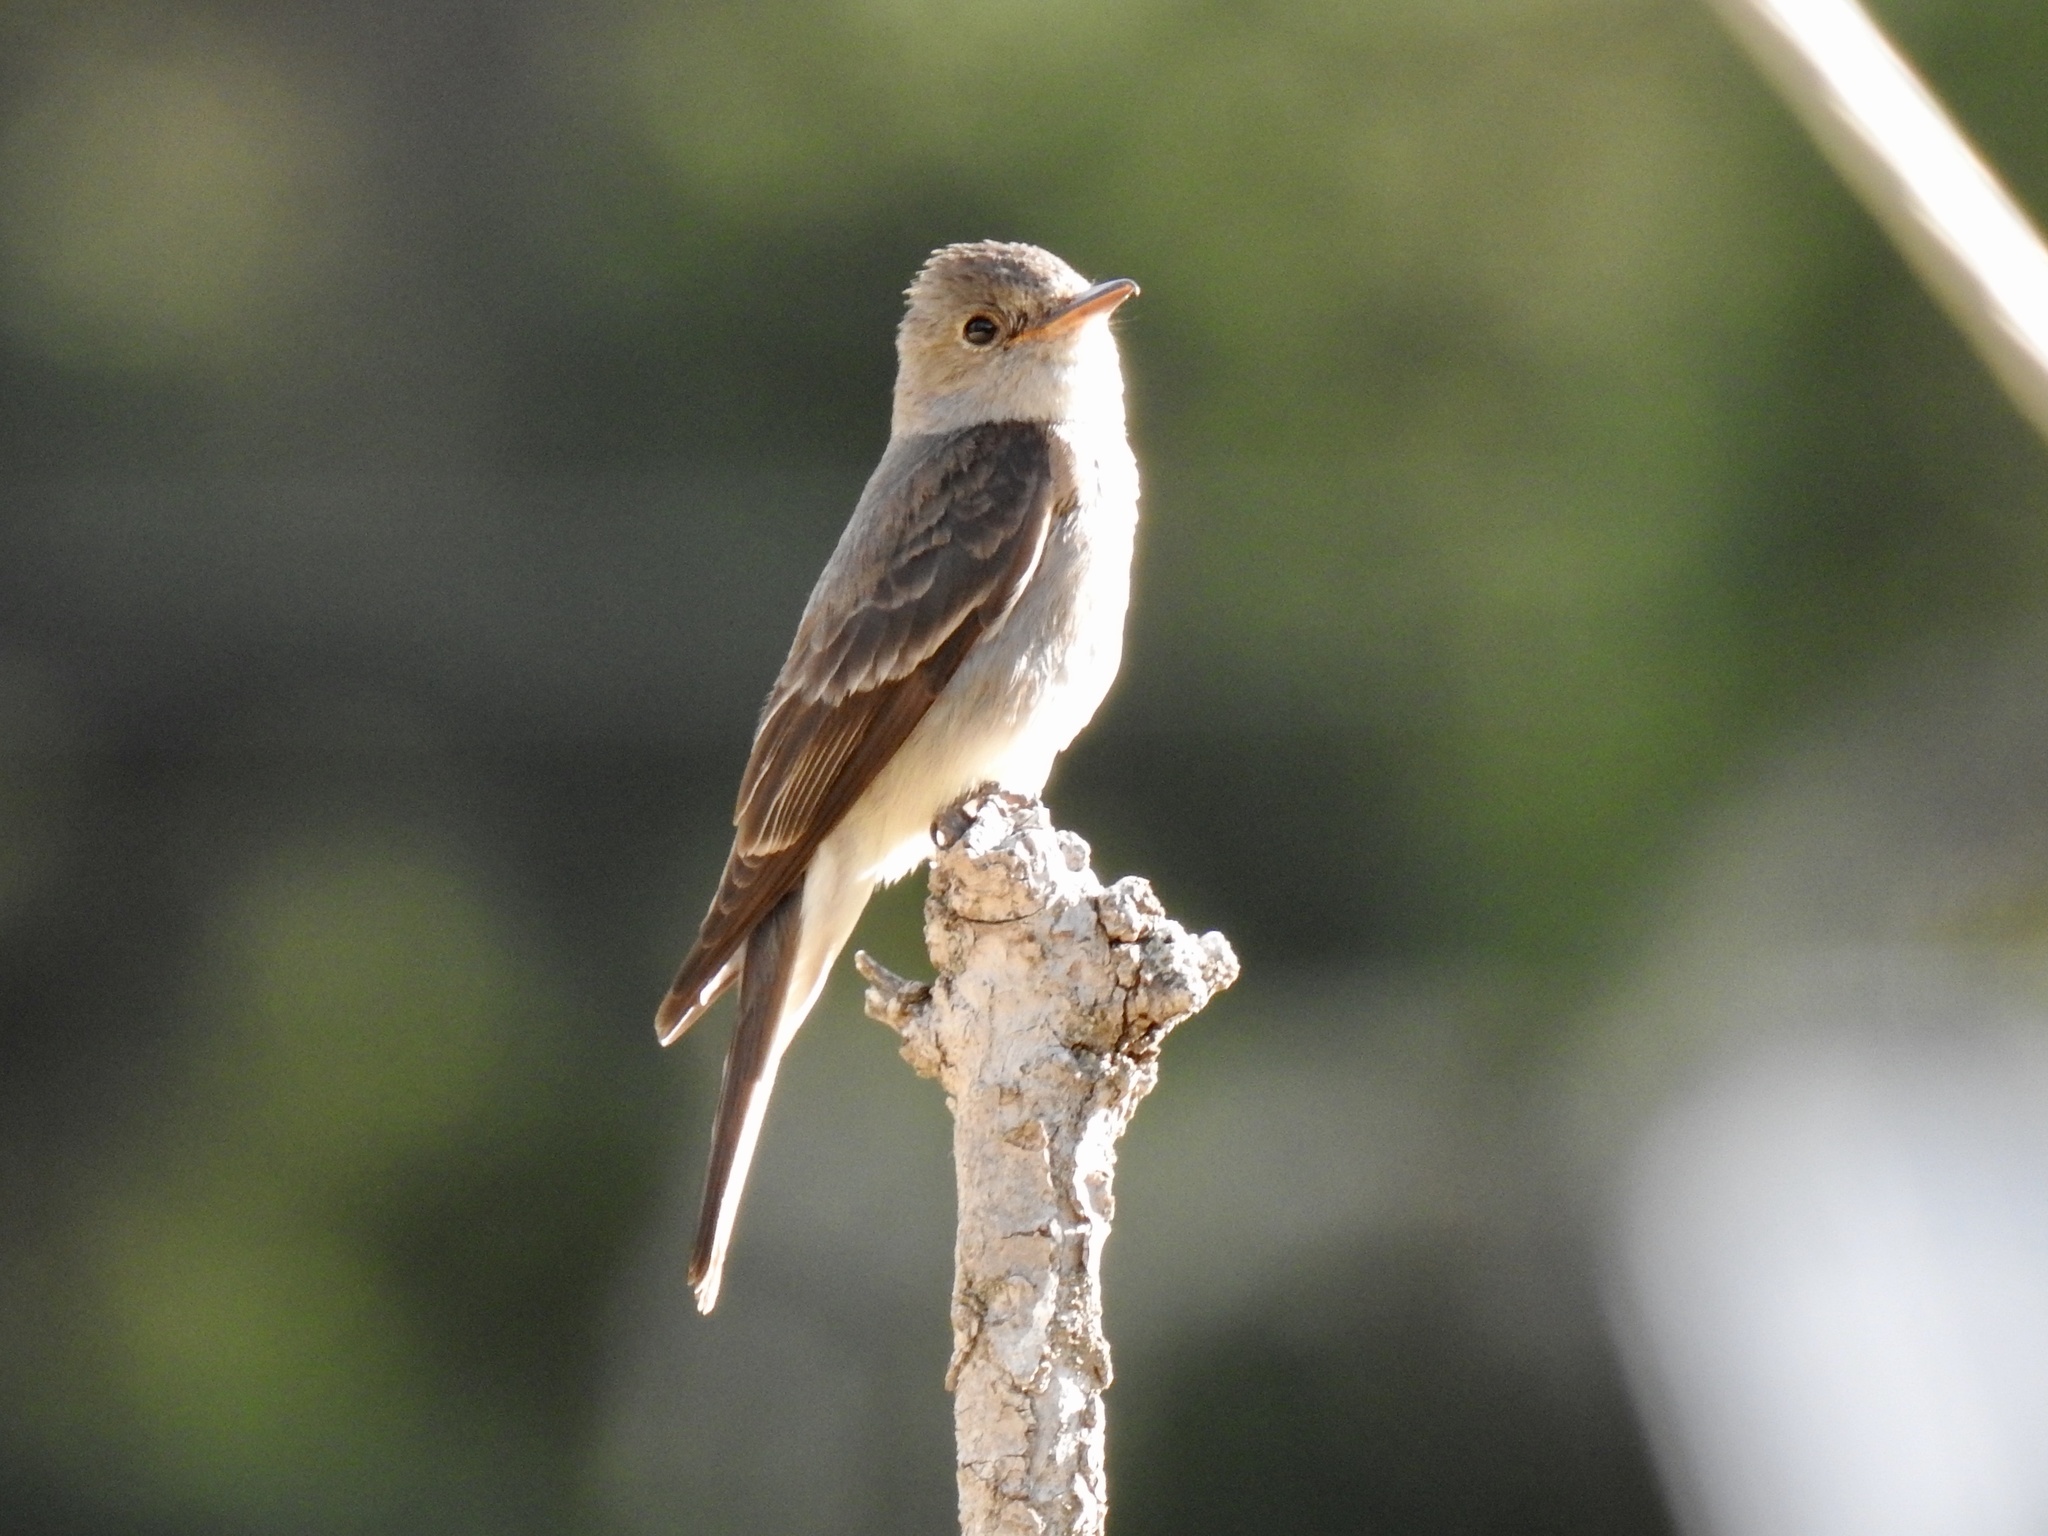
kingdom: Animalia
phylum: Chordata
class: Aves
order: Passeriformes
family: Tyrannidae
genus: Contopus
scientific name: Contopus sordidulus
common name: Western wood-pewee
